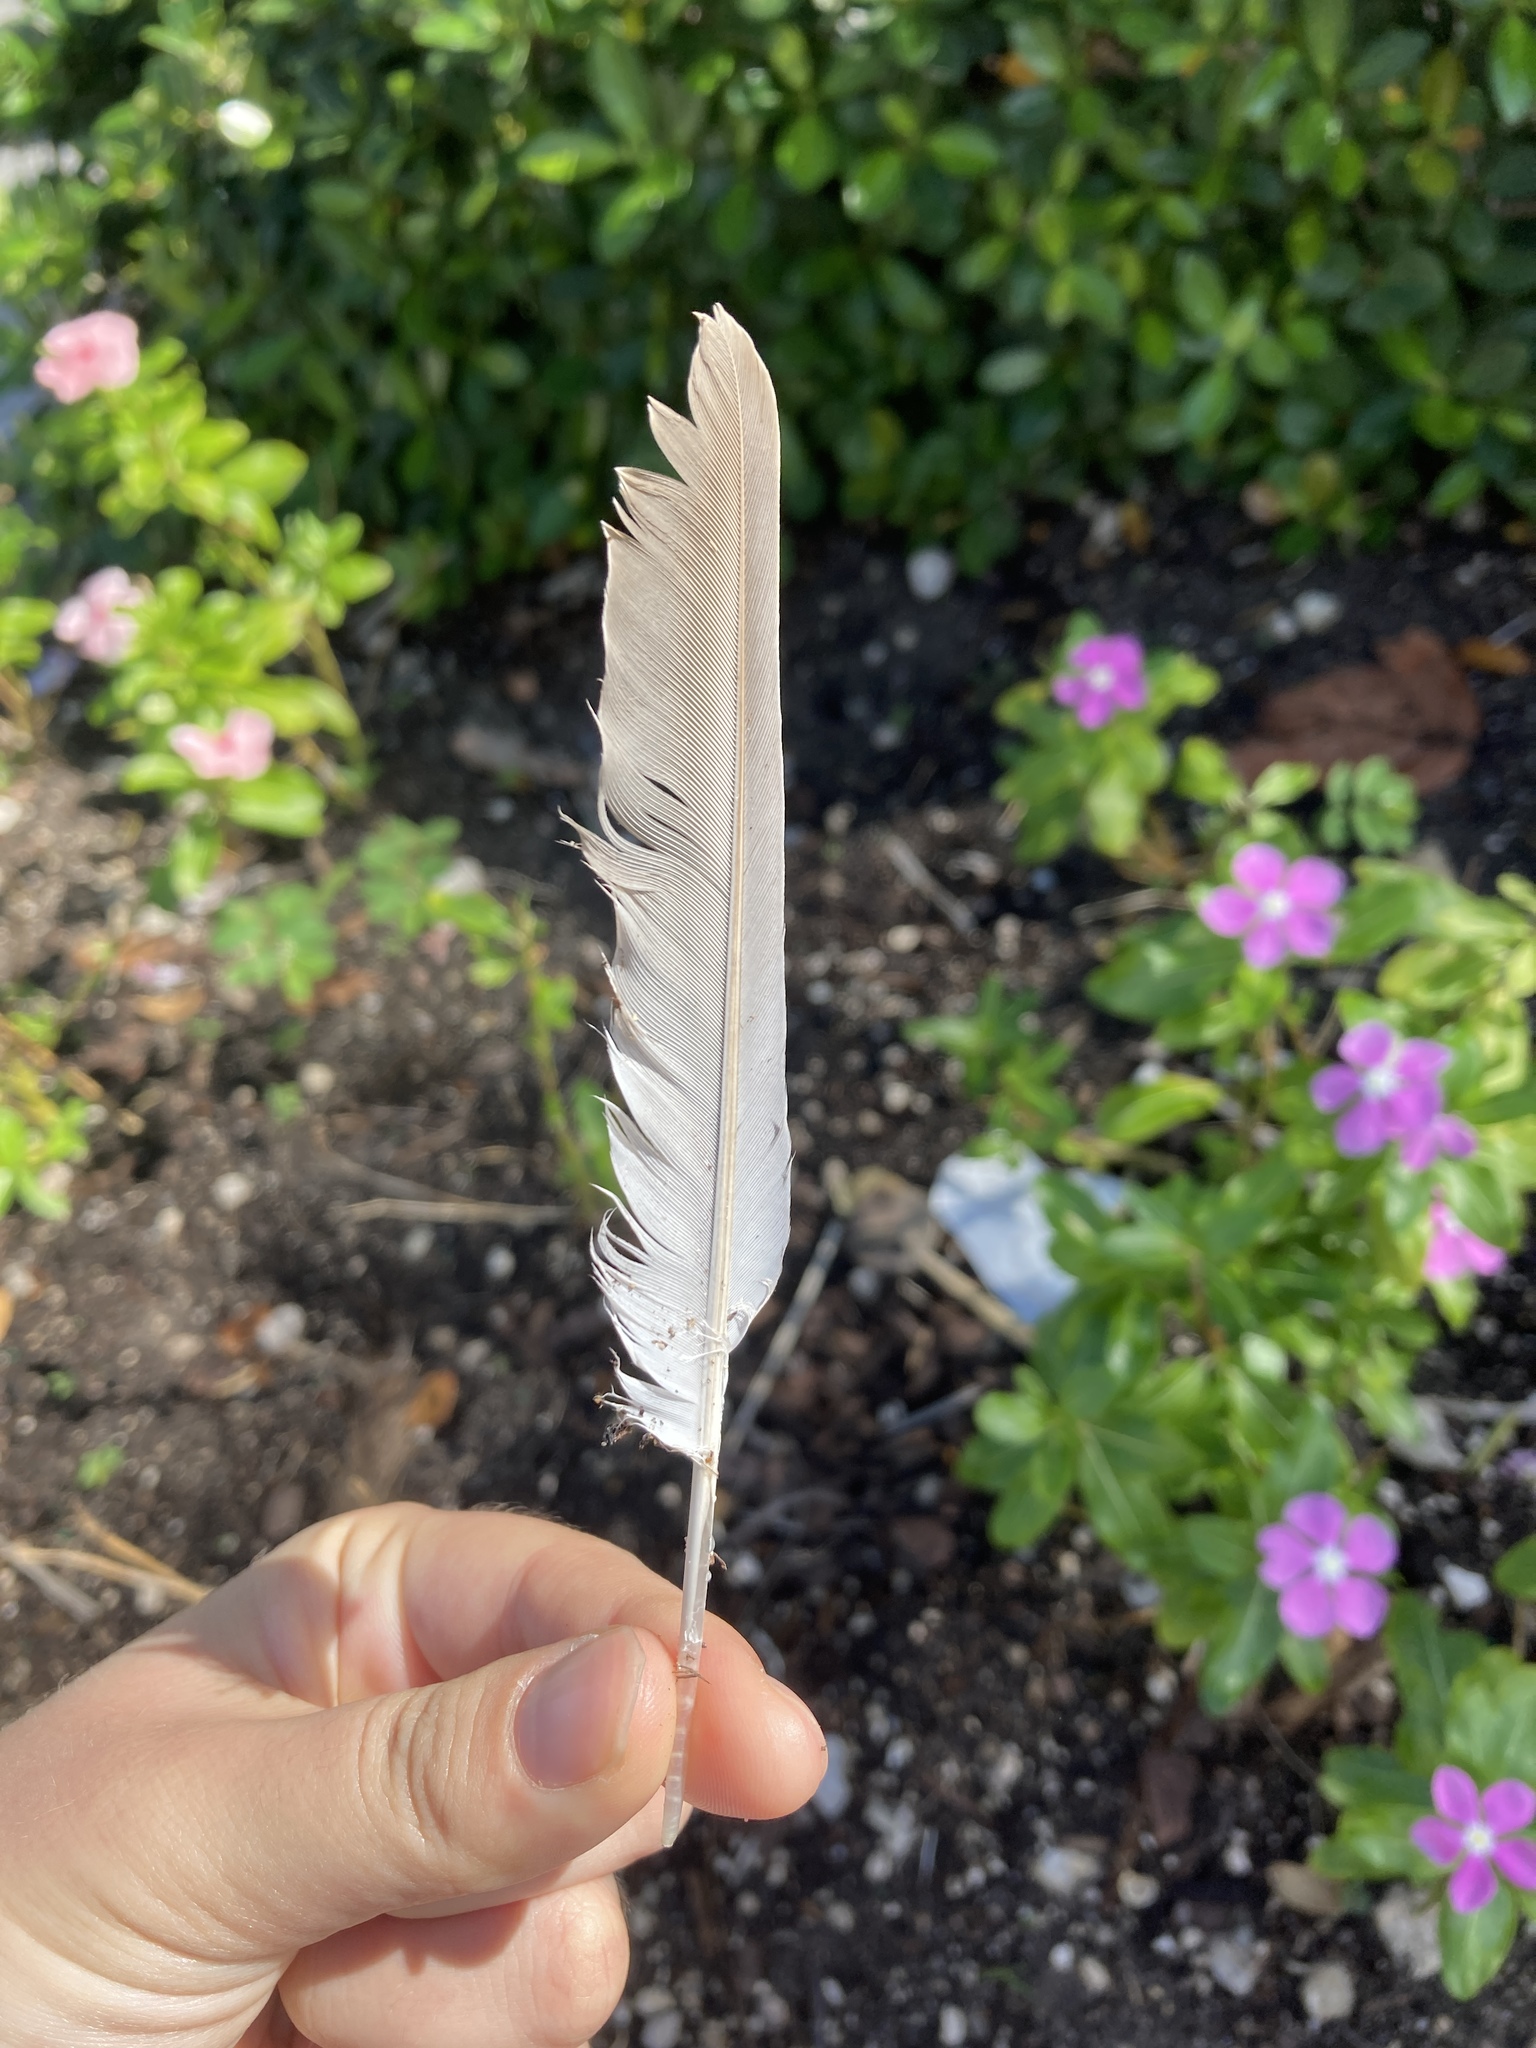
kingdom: Animalia
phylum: Chordata
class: Aves
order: Columbiformes
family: Columbidae
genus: Streptopelia
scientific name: Streptopelia decaocto
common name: Eurasian collared dove
